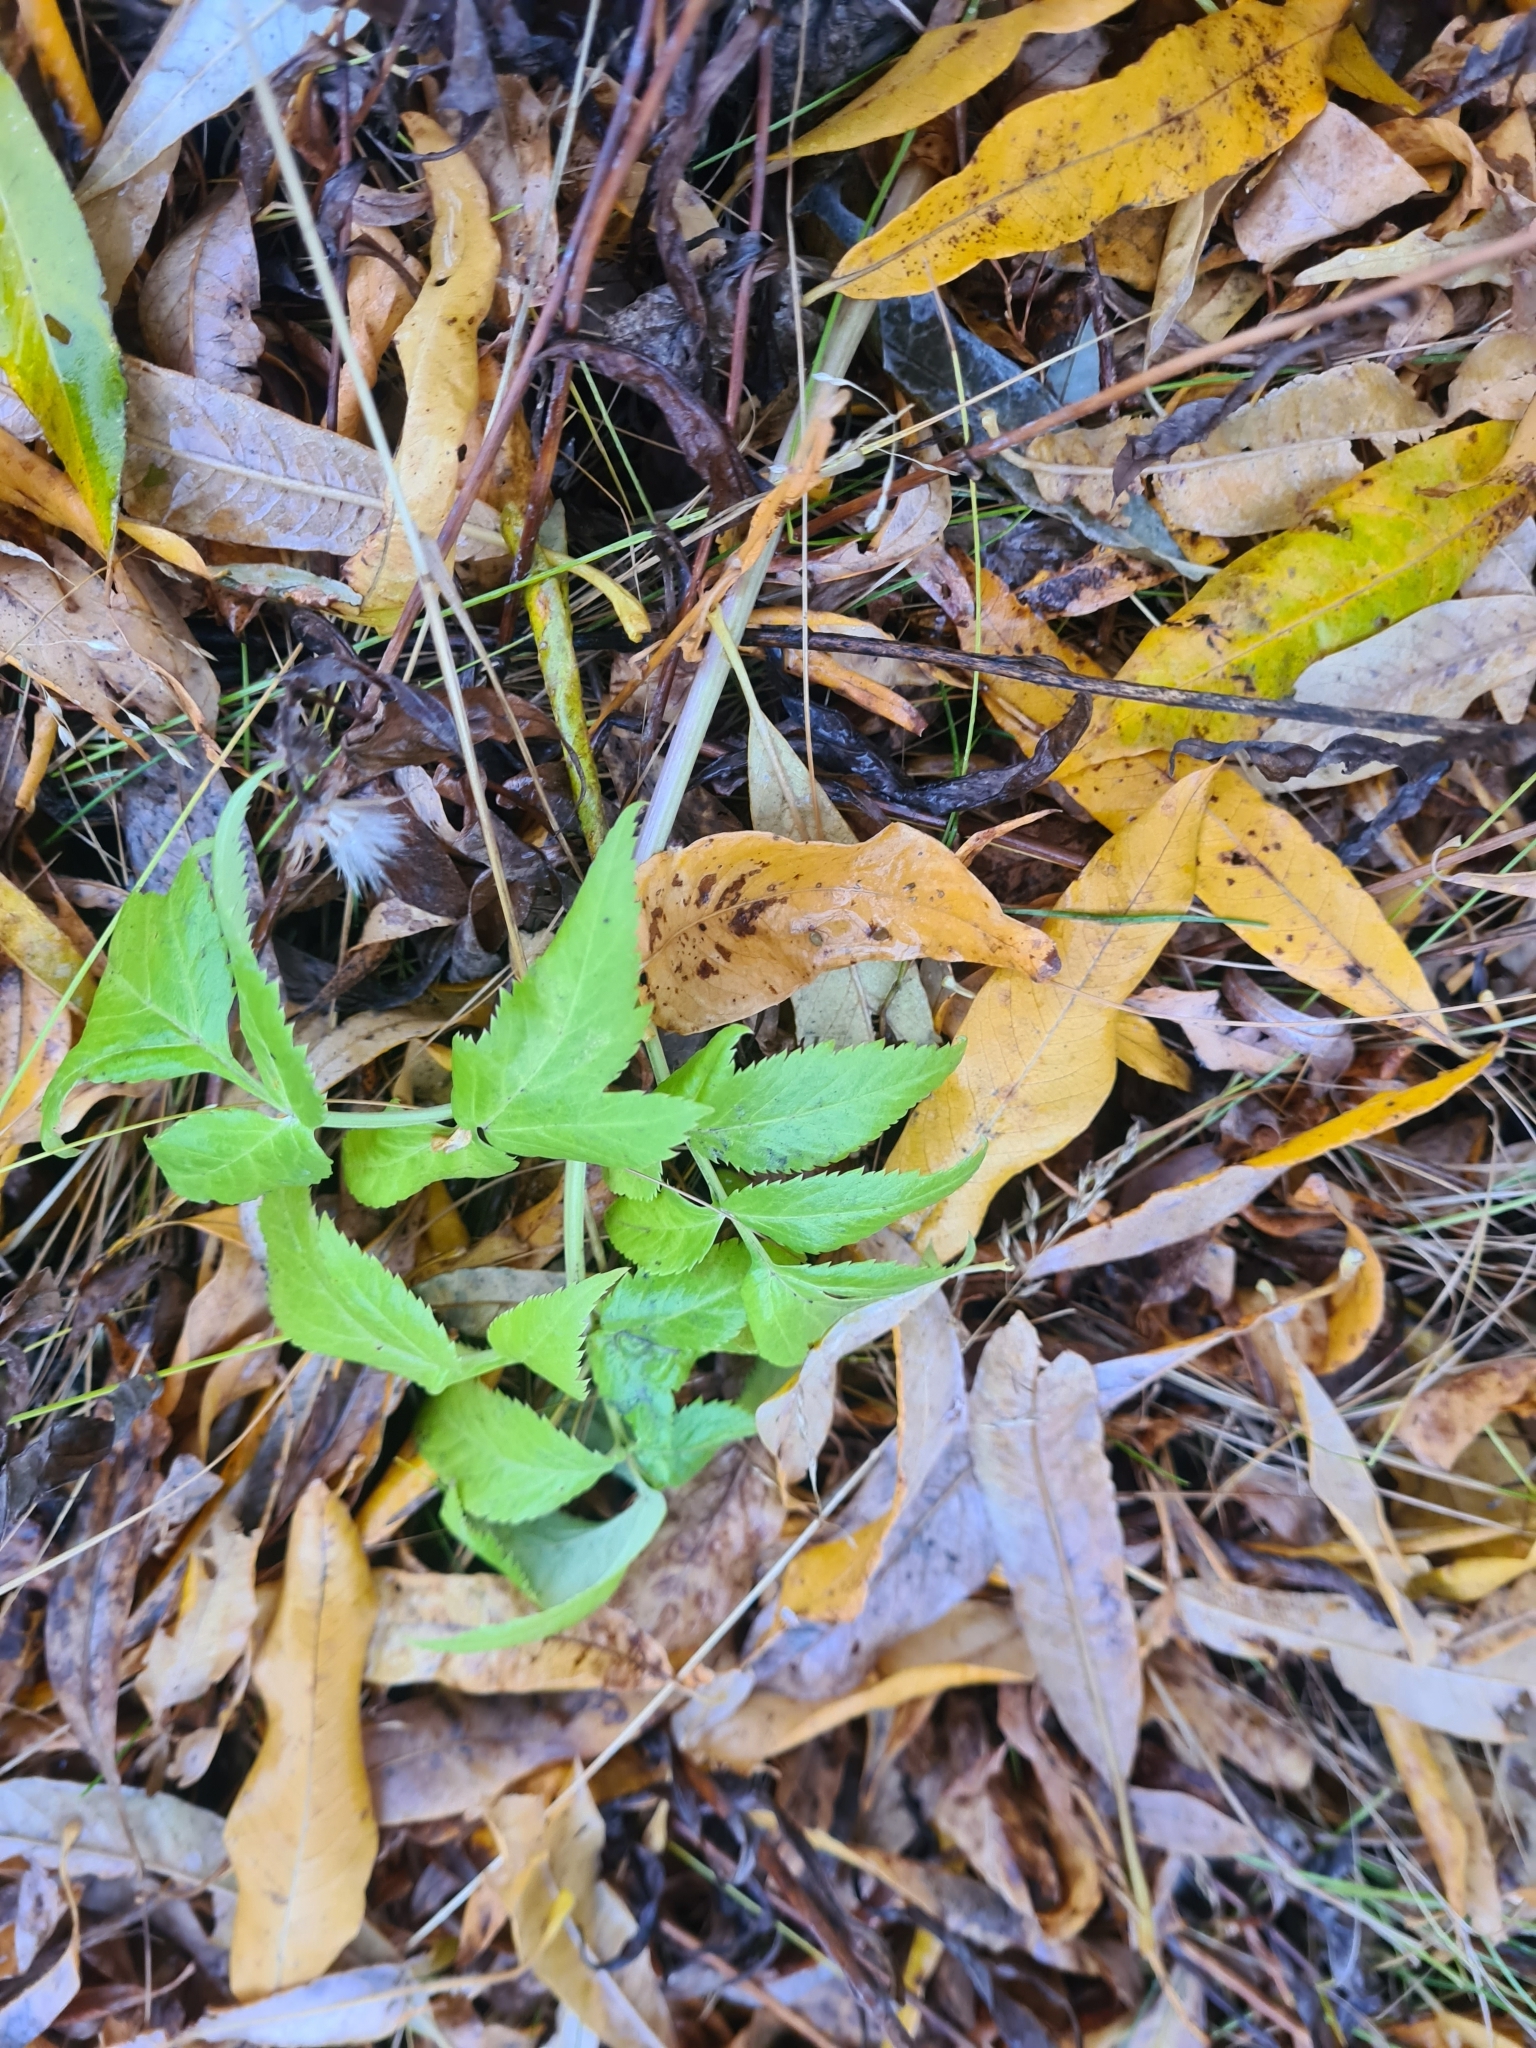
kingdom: Plantae
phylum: Tracheophyta
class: Magnoliopsida
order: Apiales
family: Apiaceae
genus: Angelica
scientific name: Angelica decurrens
